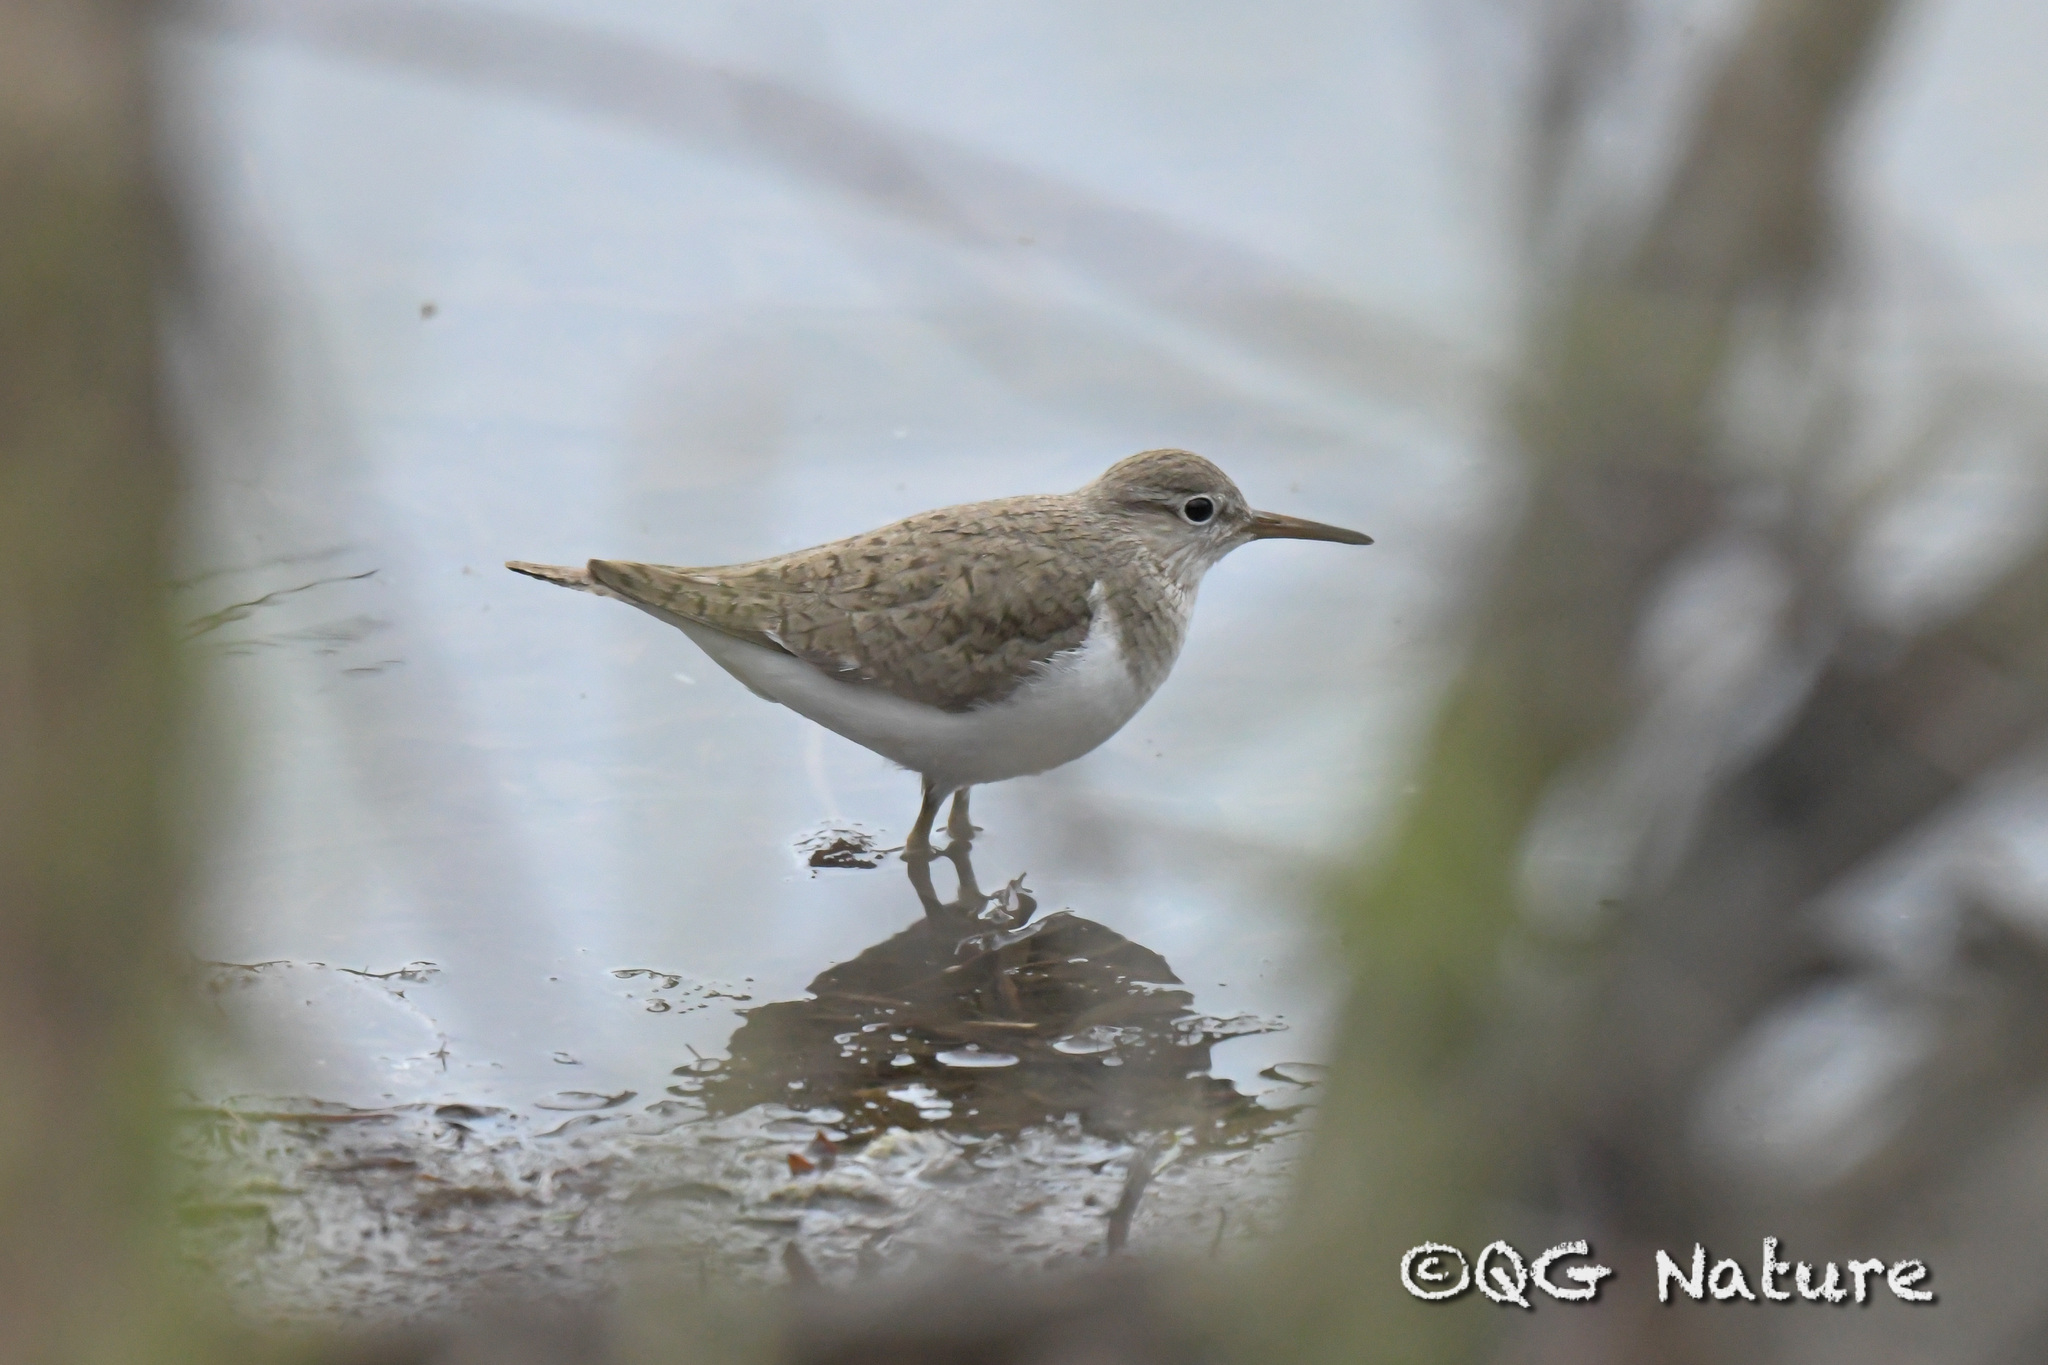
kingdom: Animalia
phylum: Chordata
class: Aves
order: Charadriiformes
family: Scolopacidae
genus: Actitis
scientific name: Actitis hypoleucos
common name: Common sandpiper
